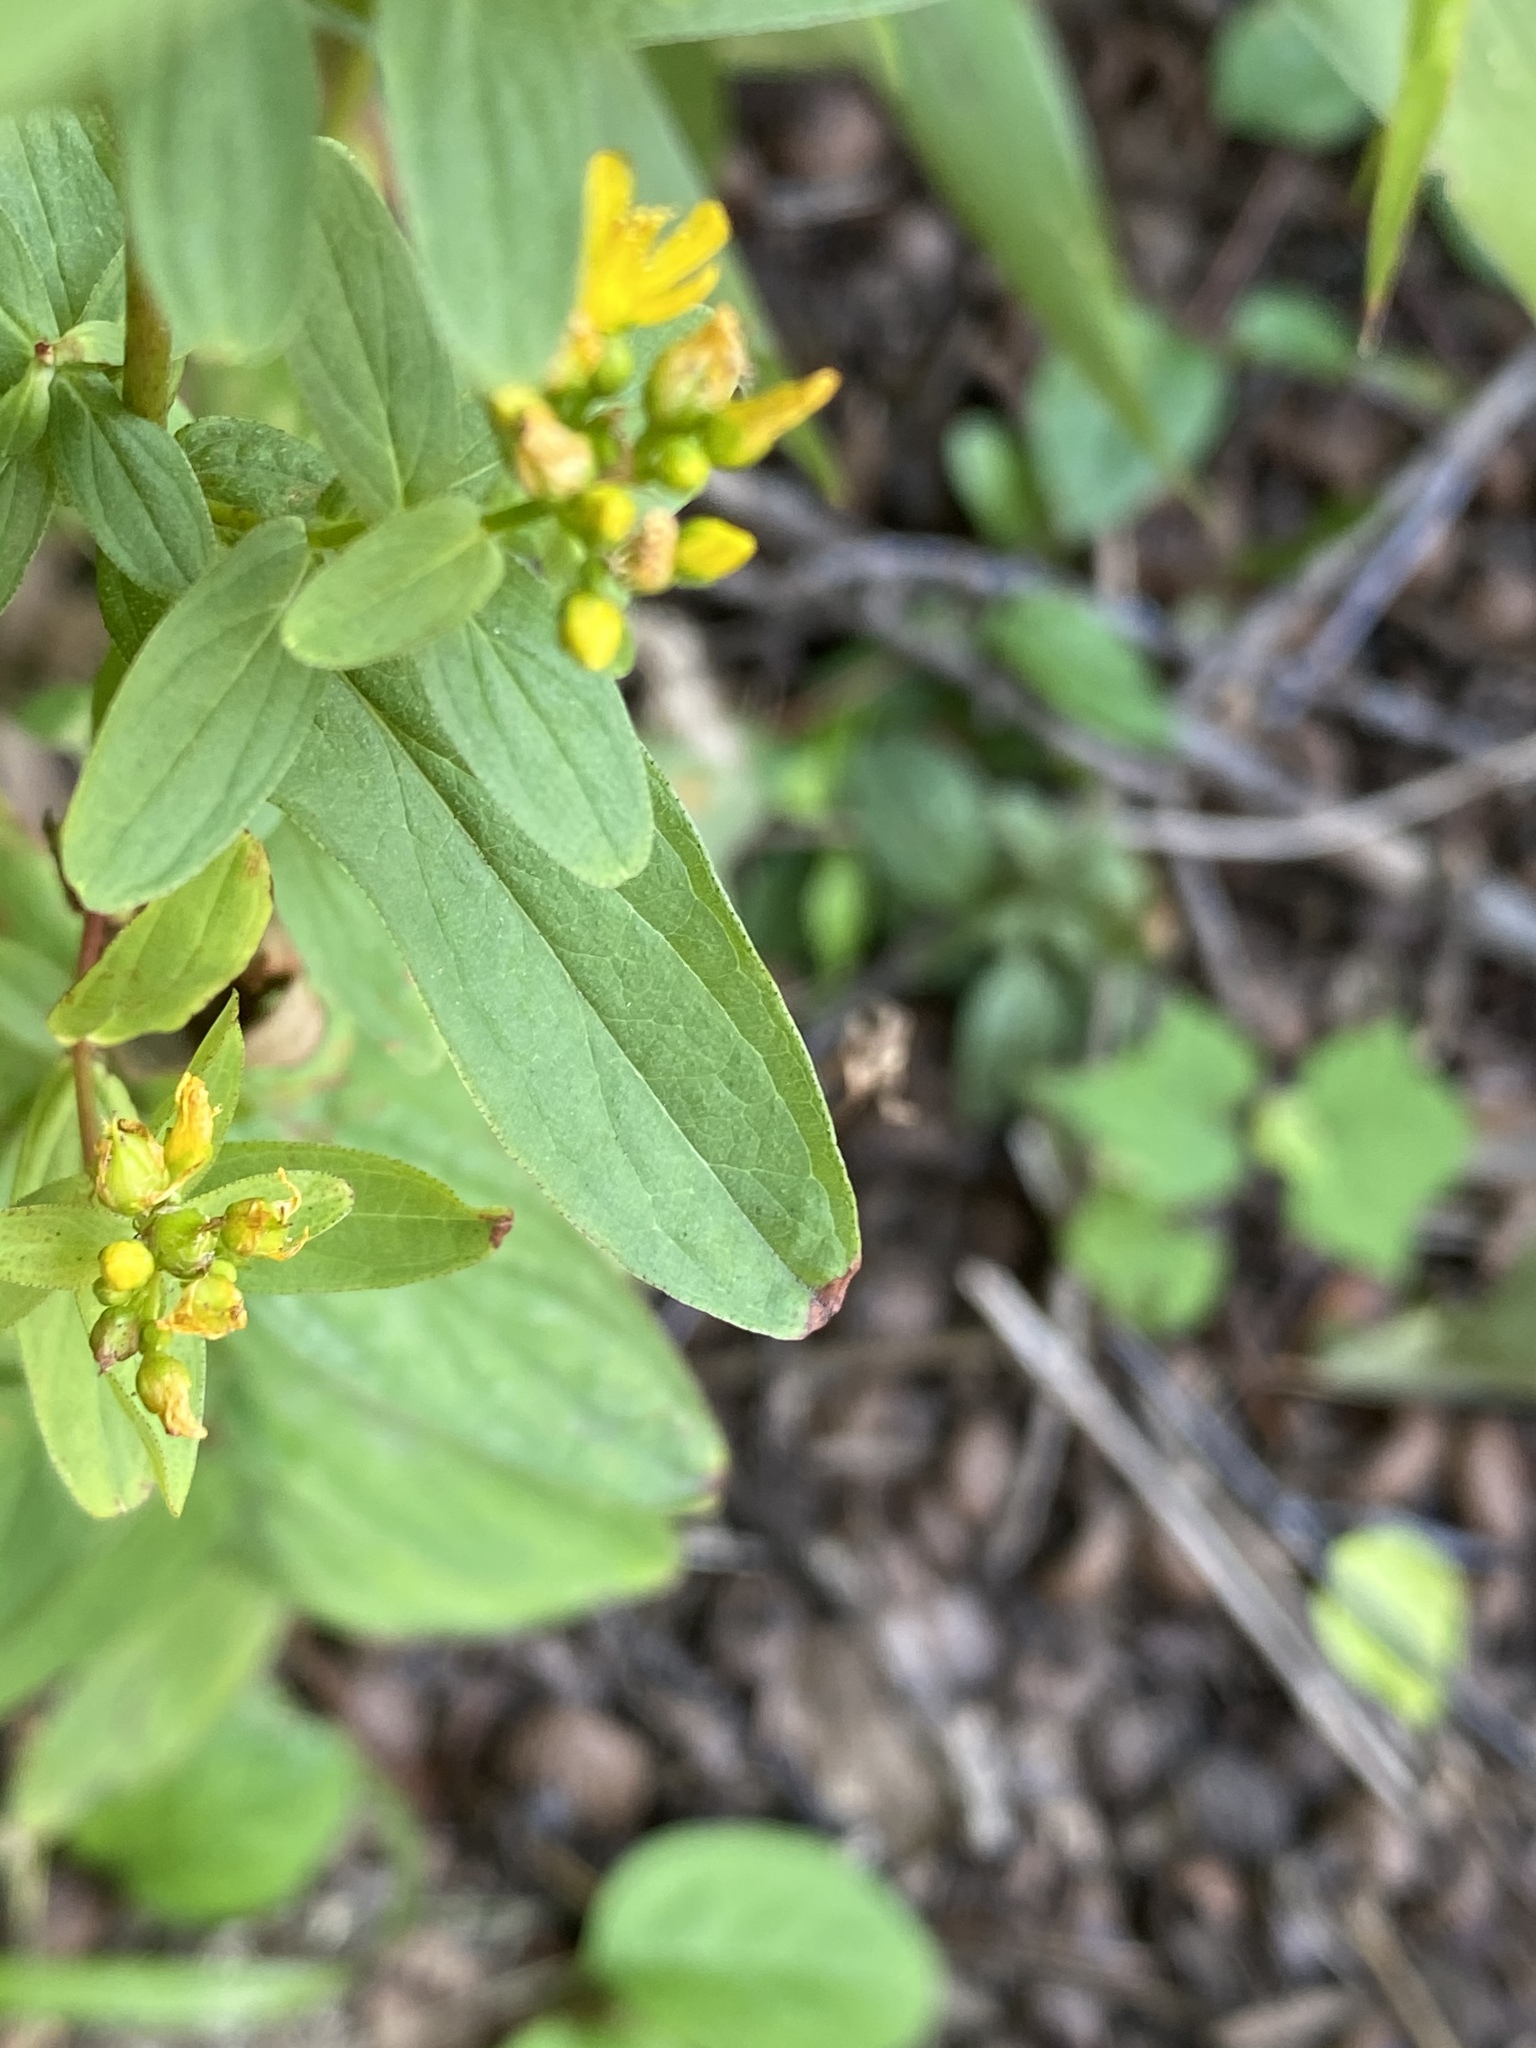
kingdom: Plantae
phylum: Tracheophyta
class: Magnoliopsida
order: Malpighiales
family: Hypericaceae
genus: Hypericum
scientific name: Hypericum punctatum
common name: Spotted st. john's-wort
